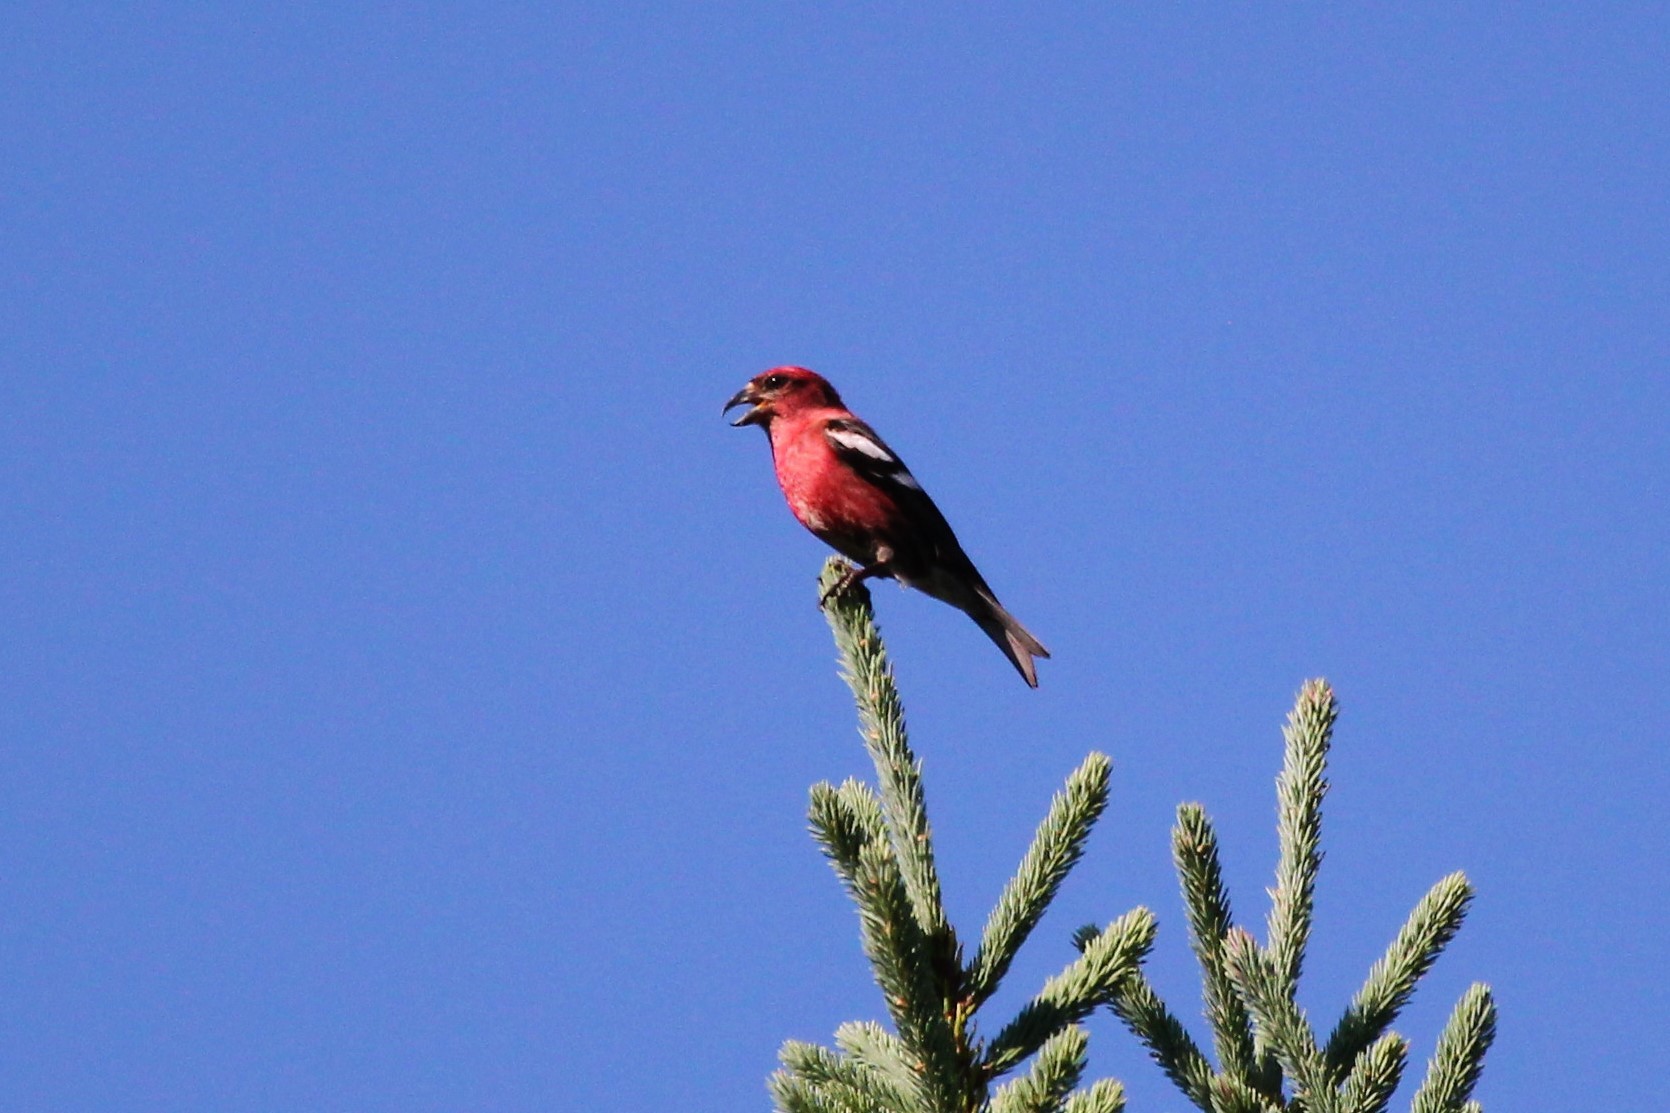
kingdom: Animalia
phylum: Chordata
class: Aves
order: Passeriformes
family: Fringillidae
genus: Loxia
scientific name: Loxia leucoptera
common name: Two-barred crossbill
